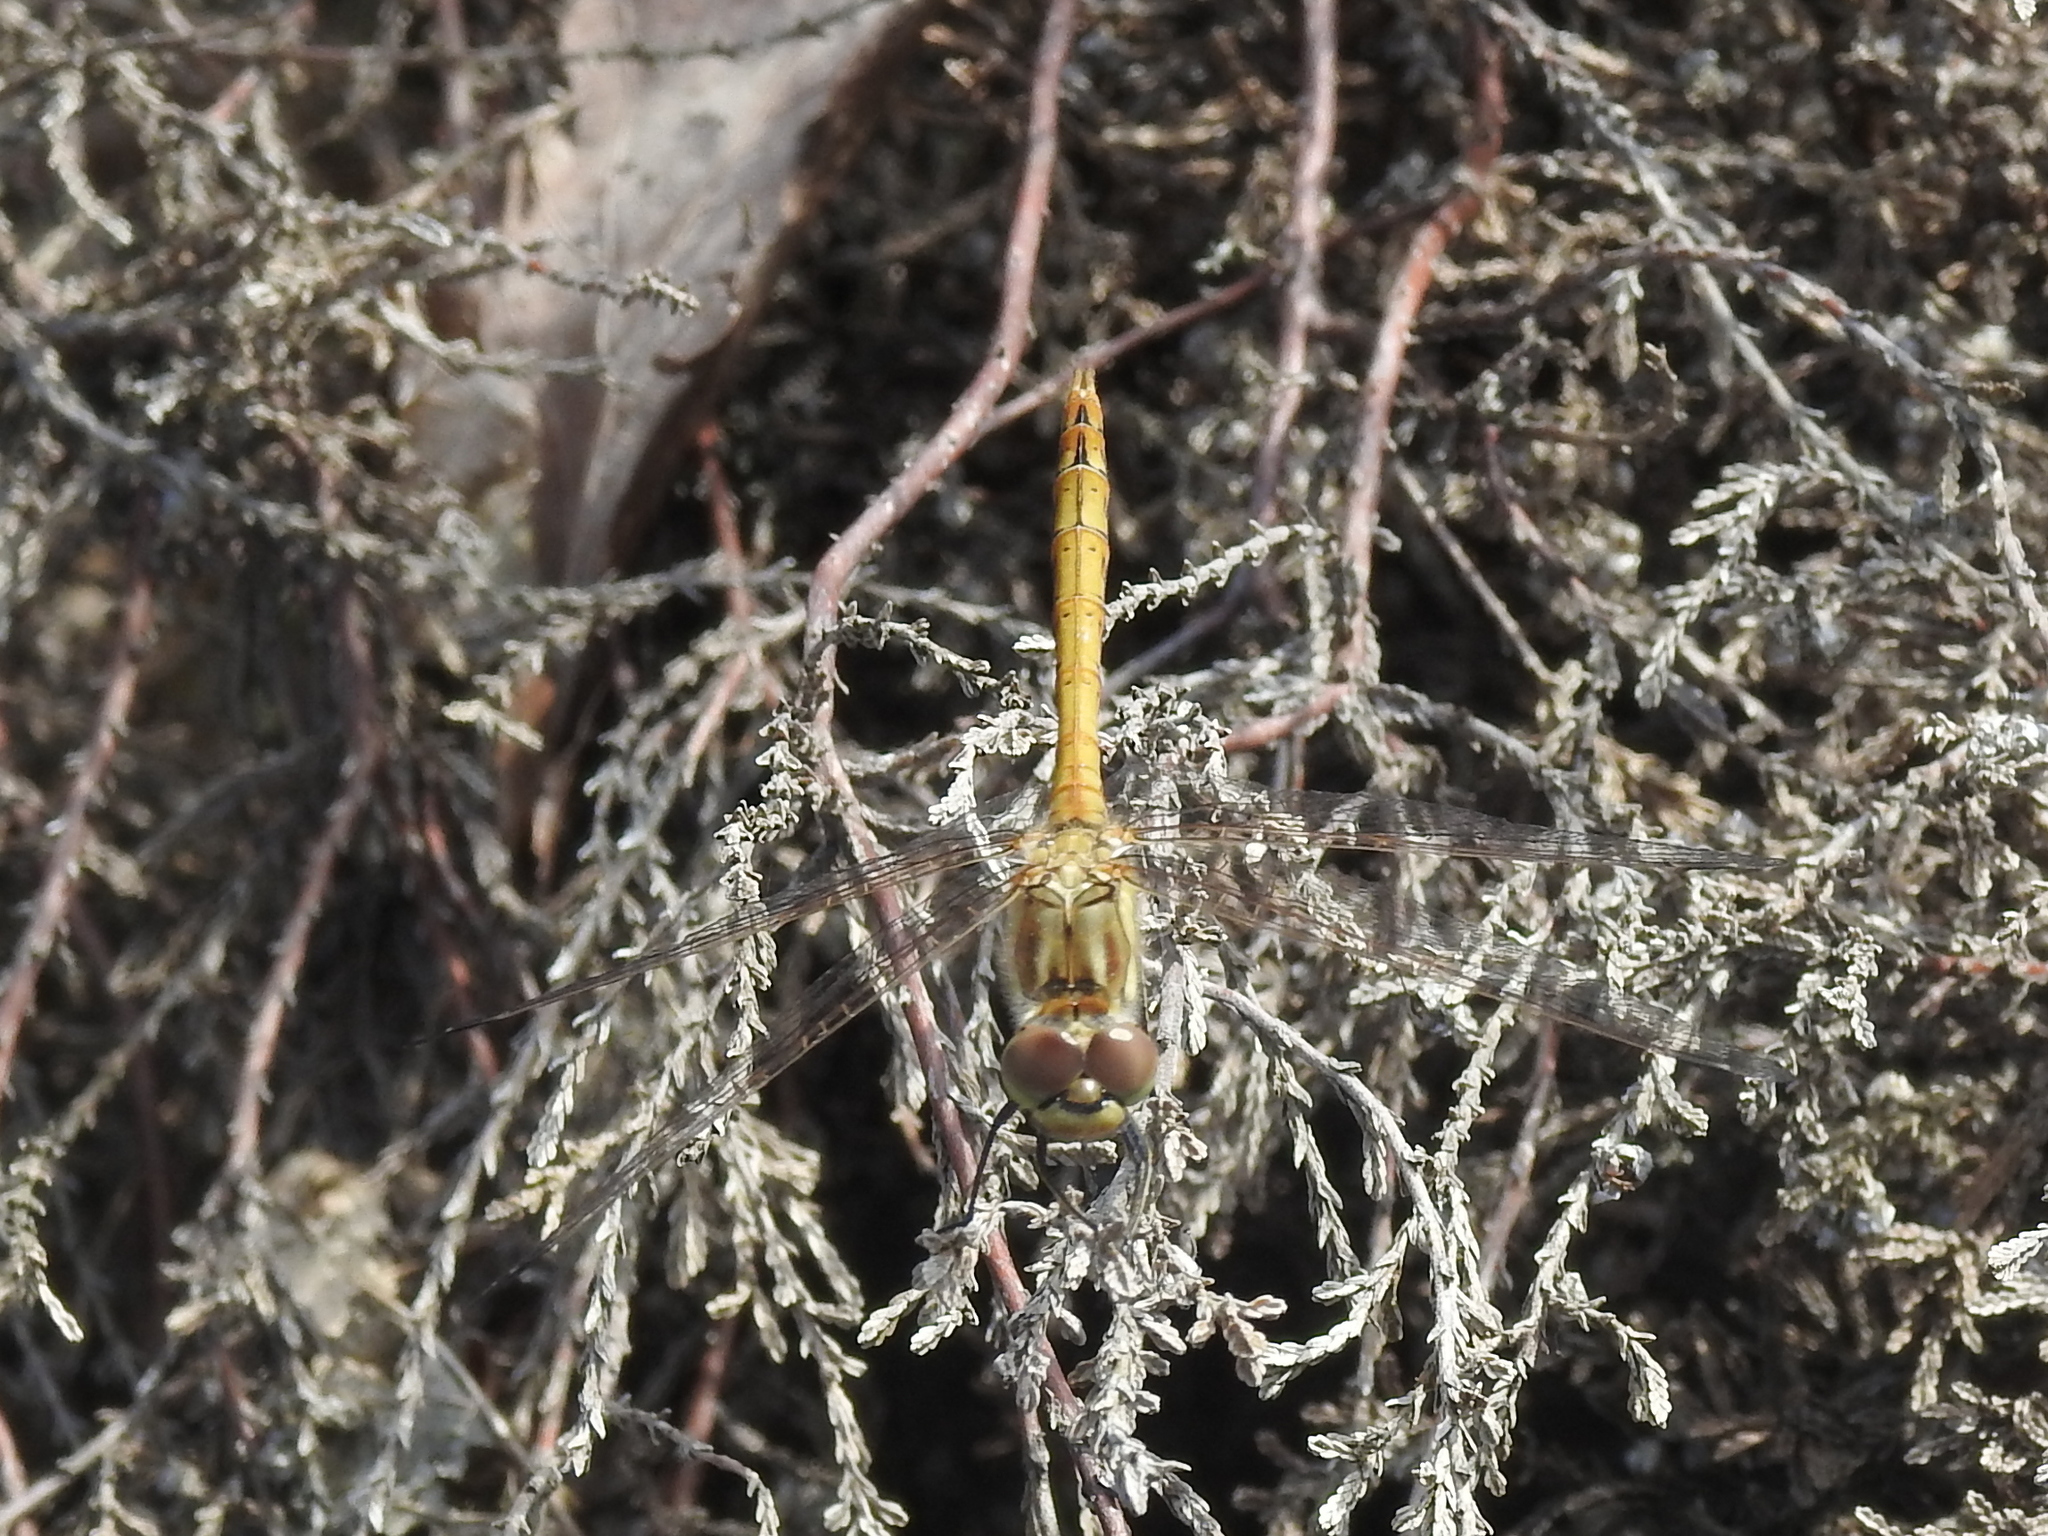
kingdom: Animalia
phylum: Arthropoda
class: Insecta
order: Odonata
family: Libellulidae
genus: Sympetrum
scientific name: Sympetrum vulgatum
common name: Vagrant darter
